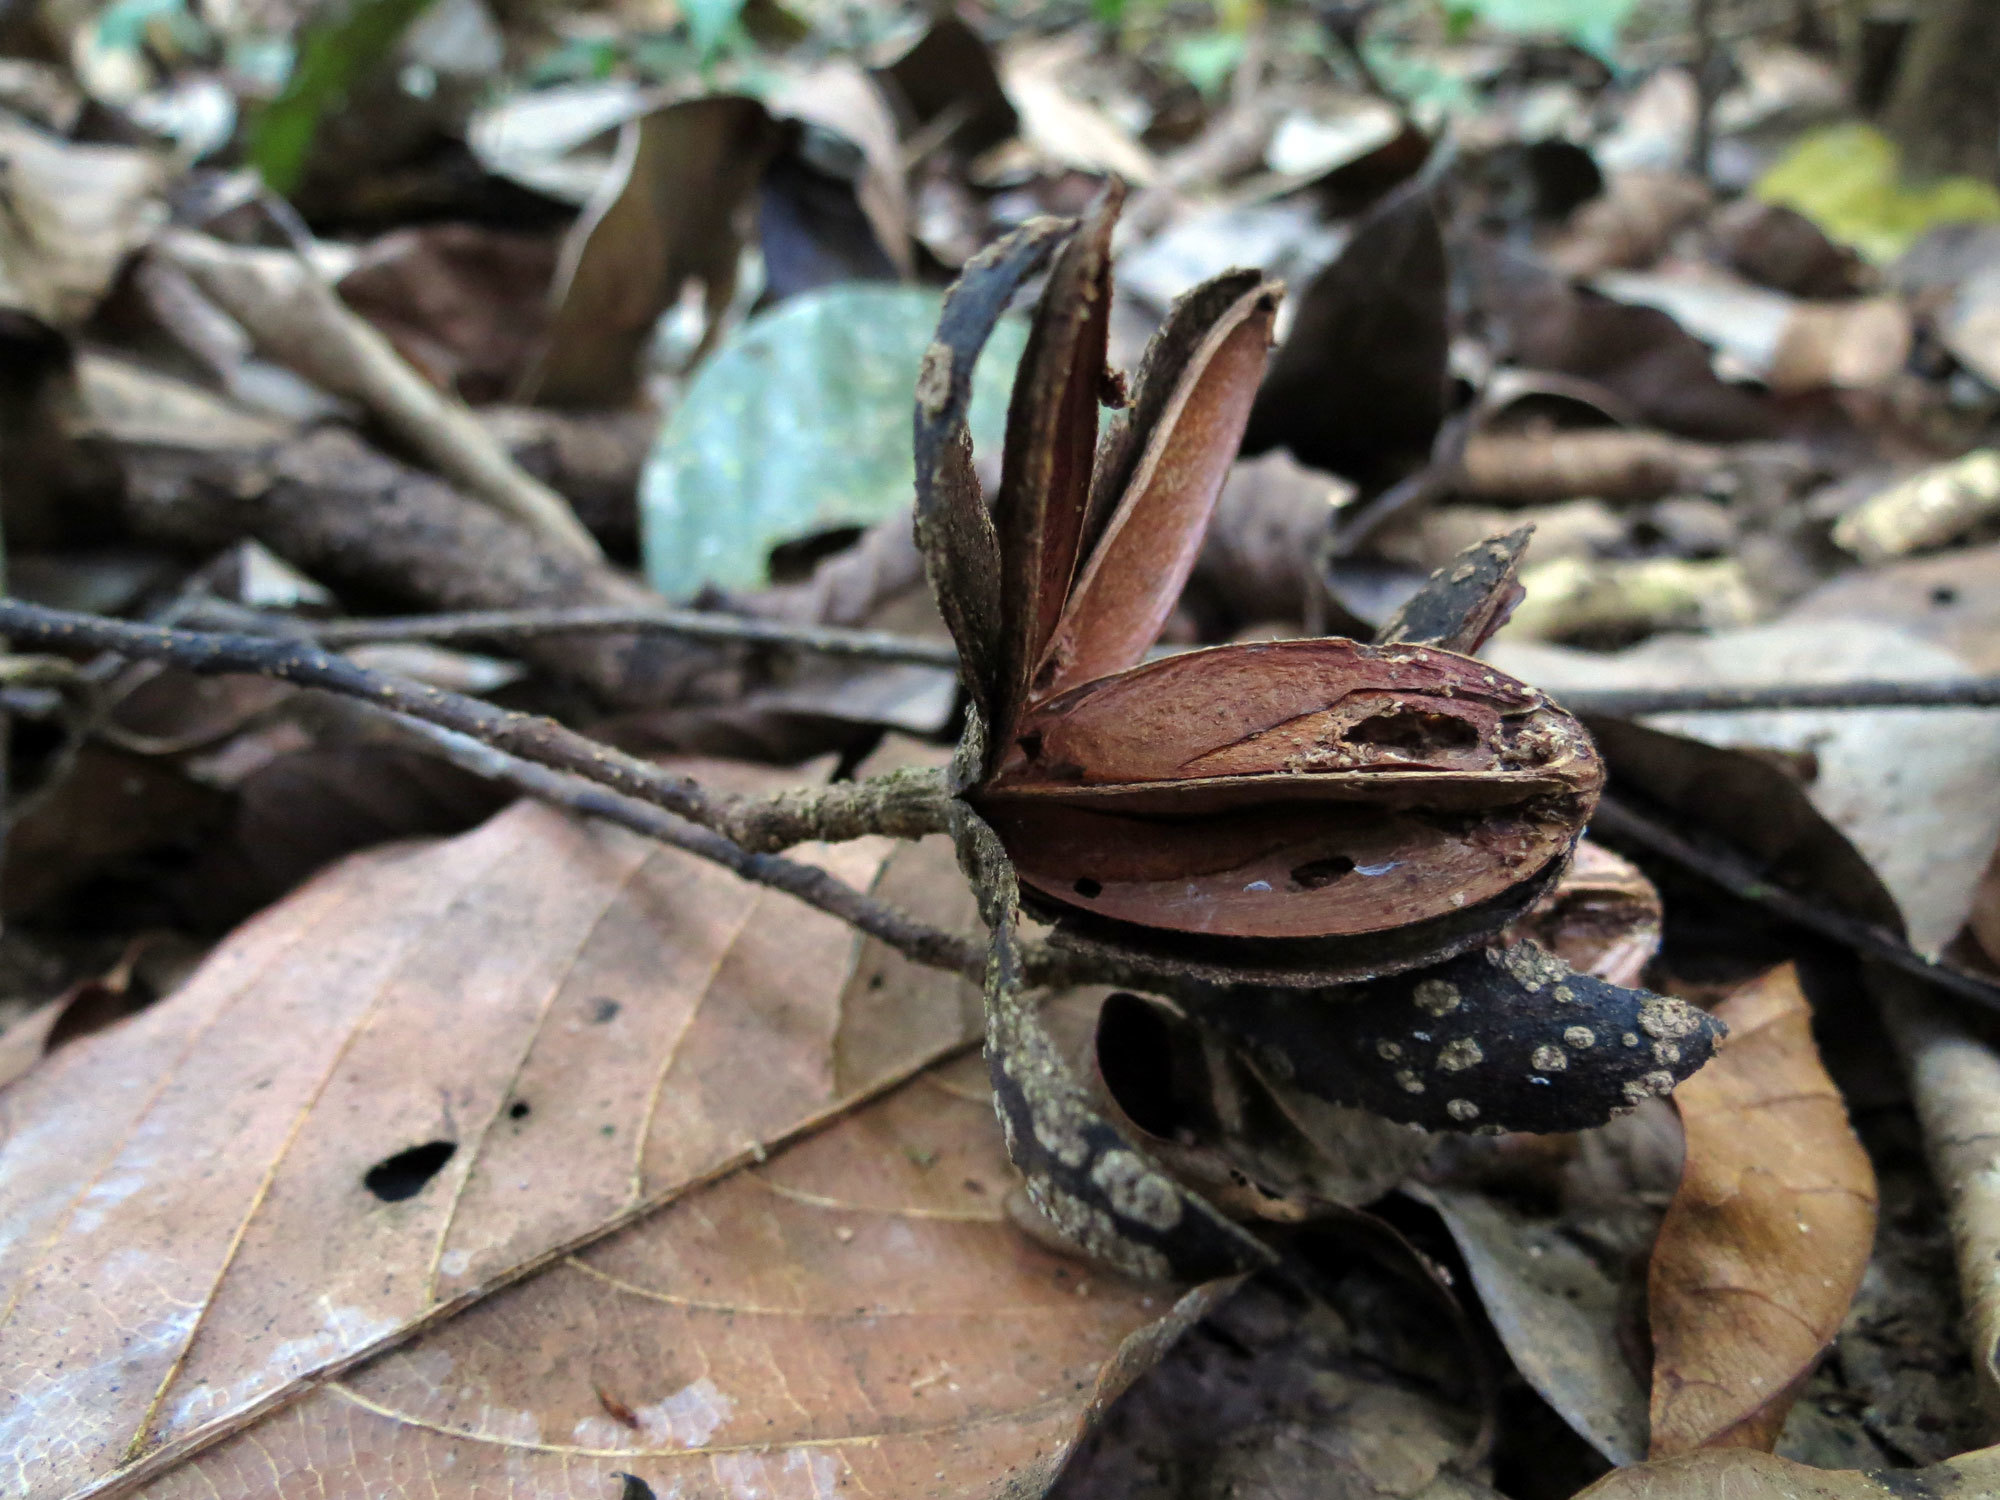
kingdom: Plantae
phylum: Tracheophyta
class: Magnoliopsida
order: Sapindales
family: Meliaceae
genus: Cedrela
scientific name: Cedrela odorata
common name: Red cedar
